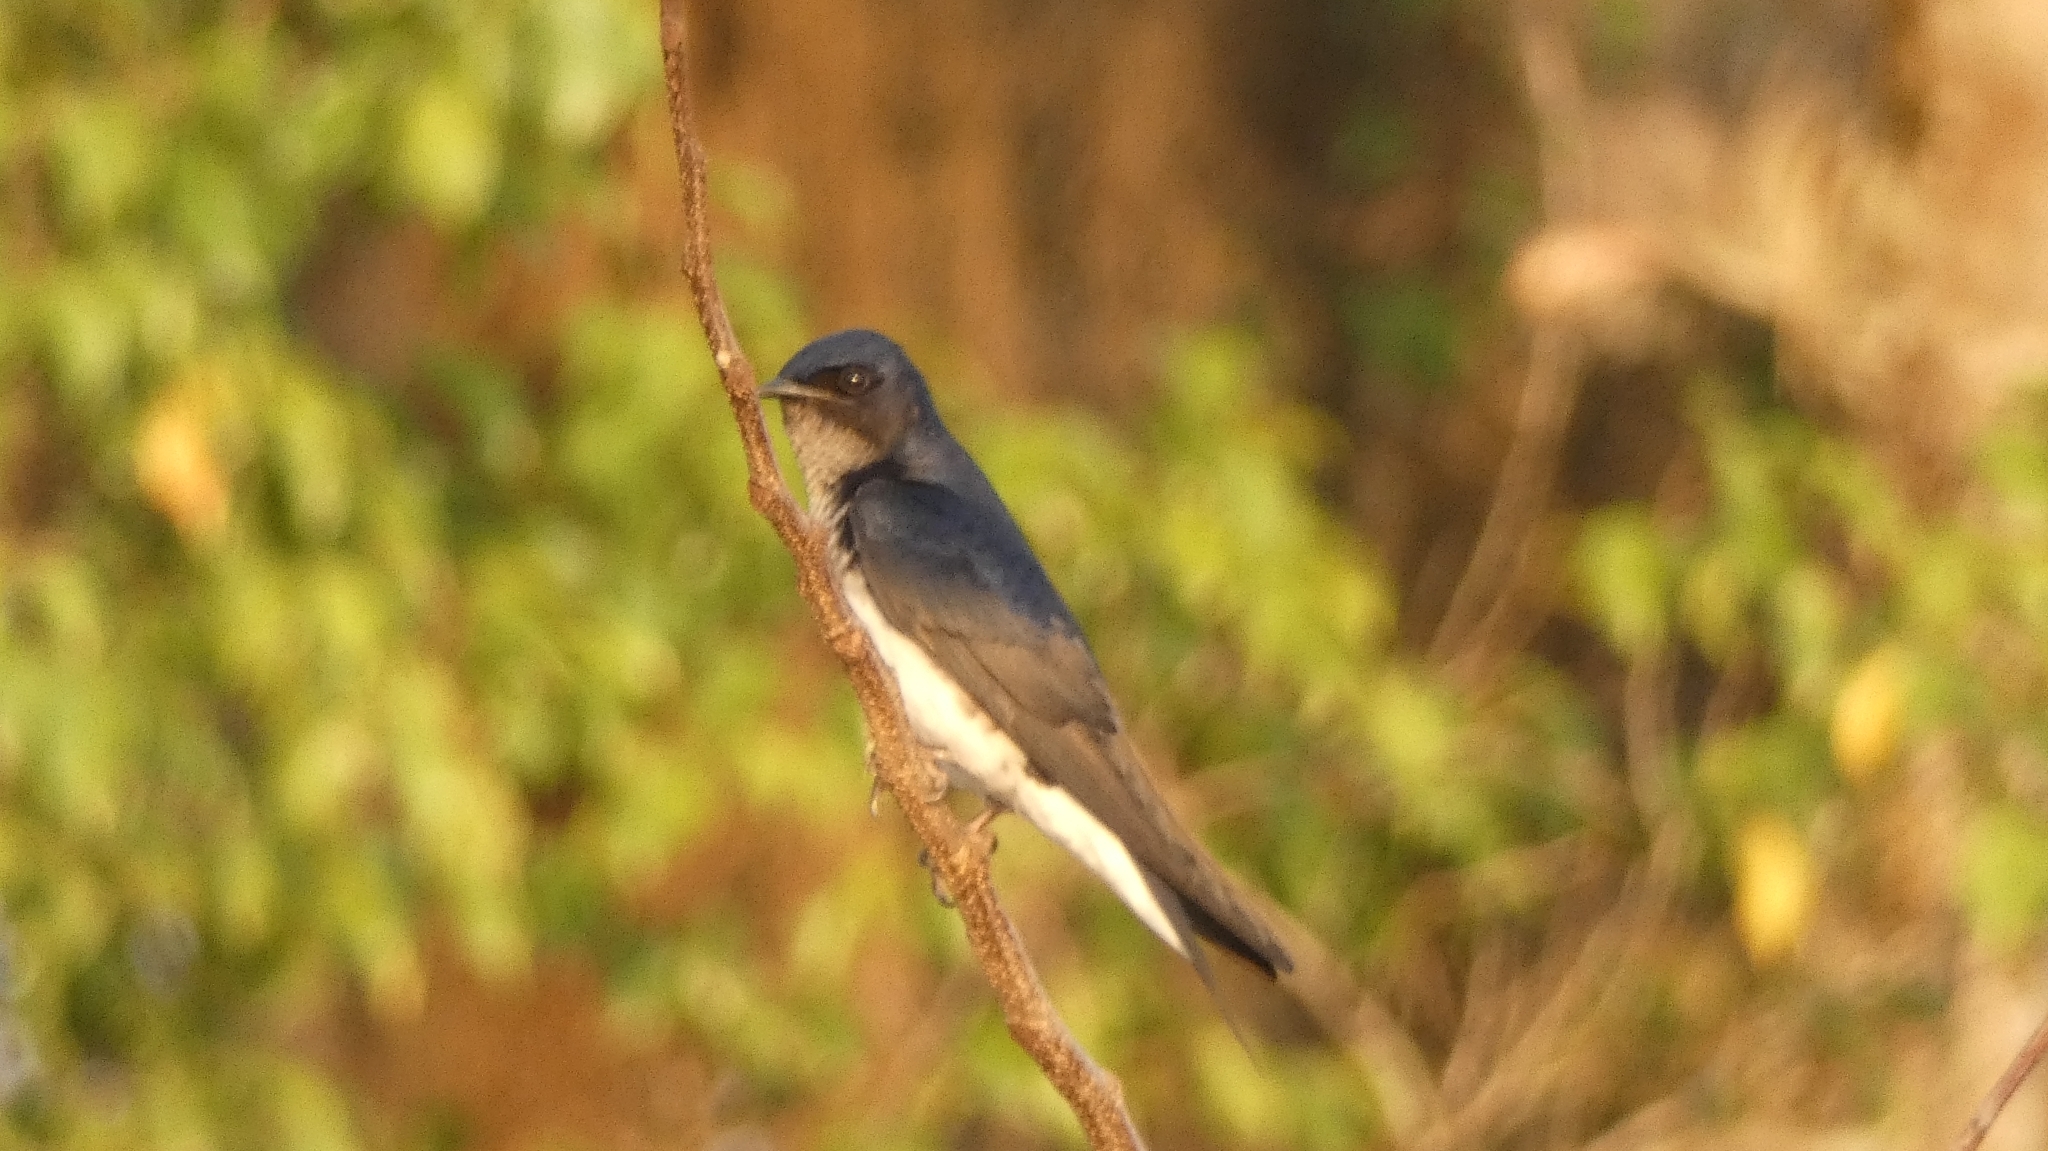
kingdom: Animalia
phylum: Chordata
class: Aves
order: Passeriformes
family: Hirundinidae
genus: Progne
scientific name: Progne chalybea
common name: Grey-breasted martin
